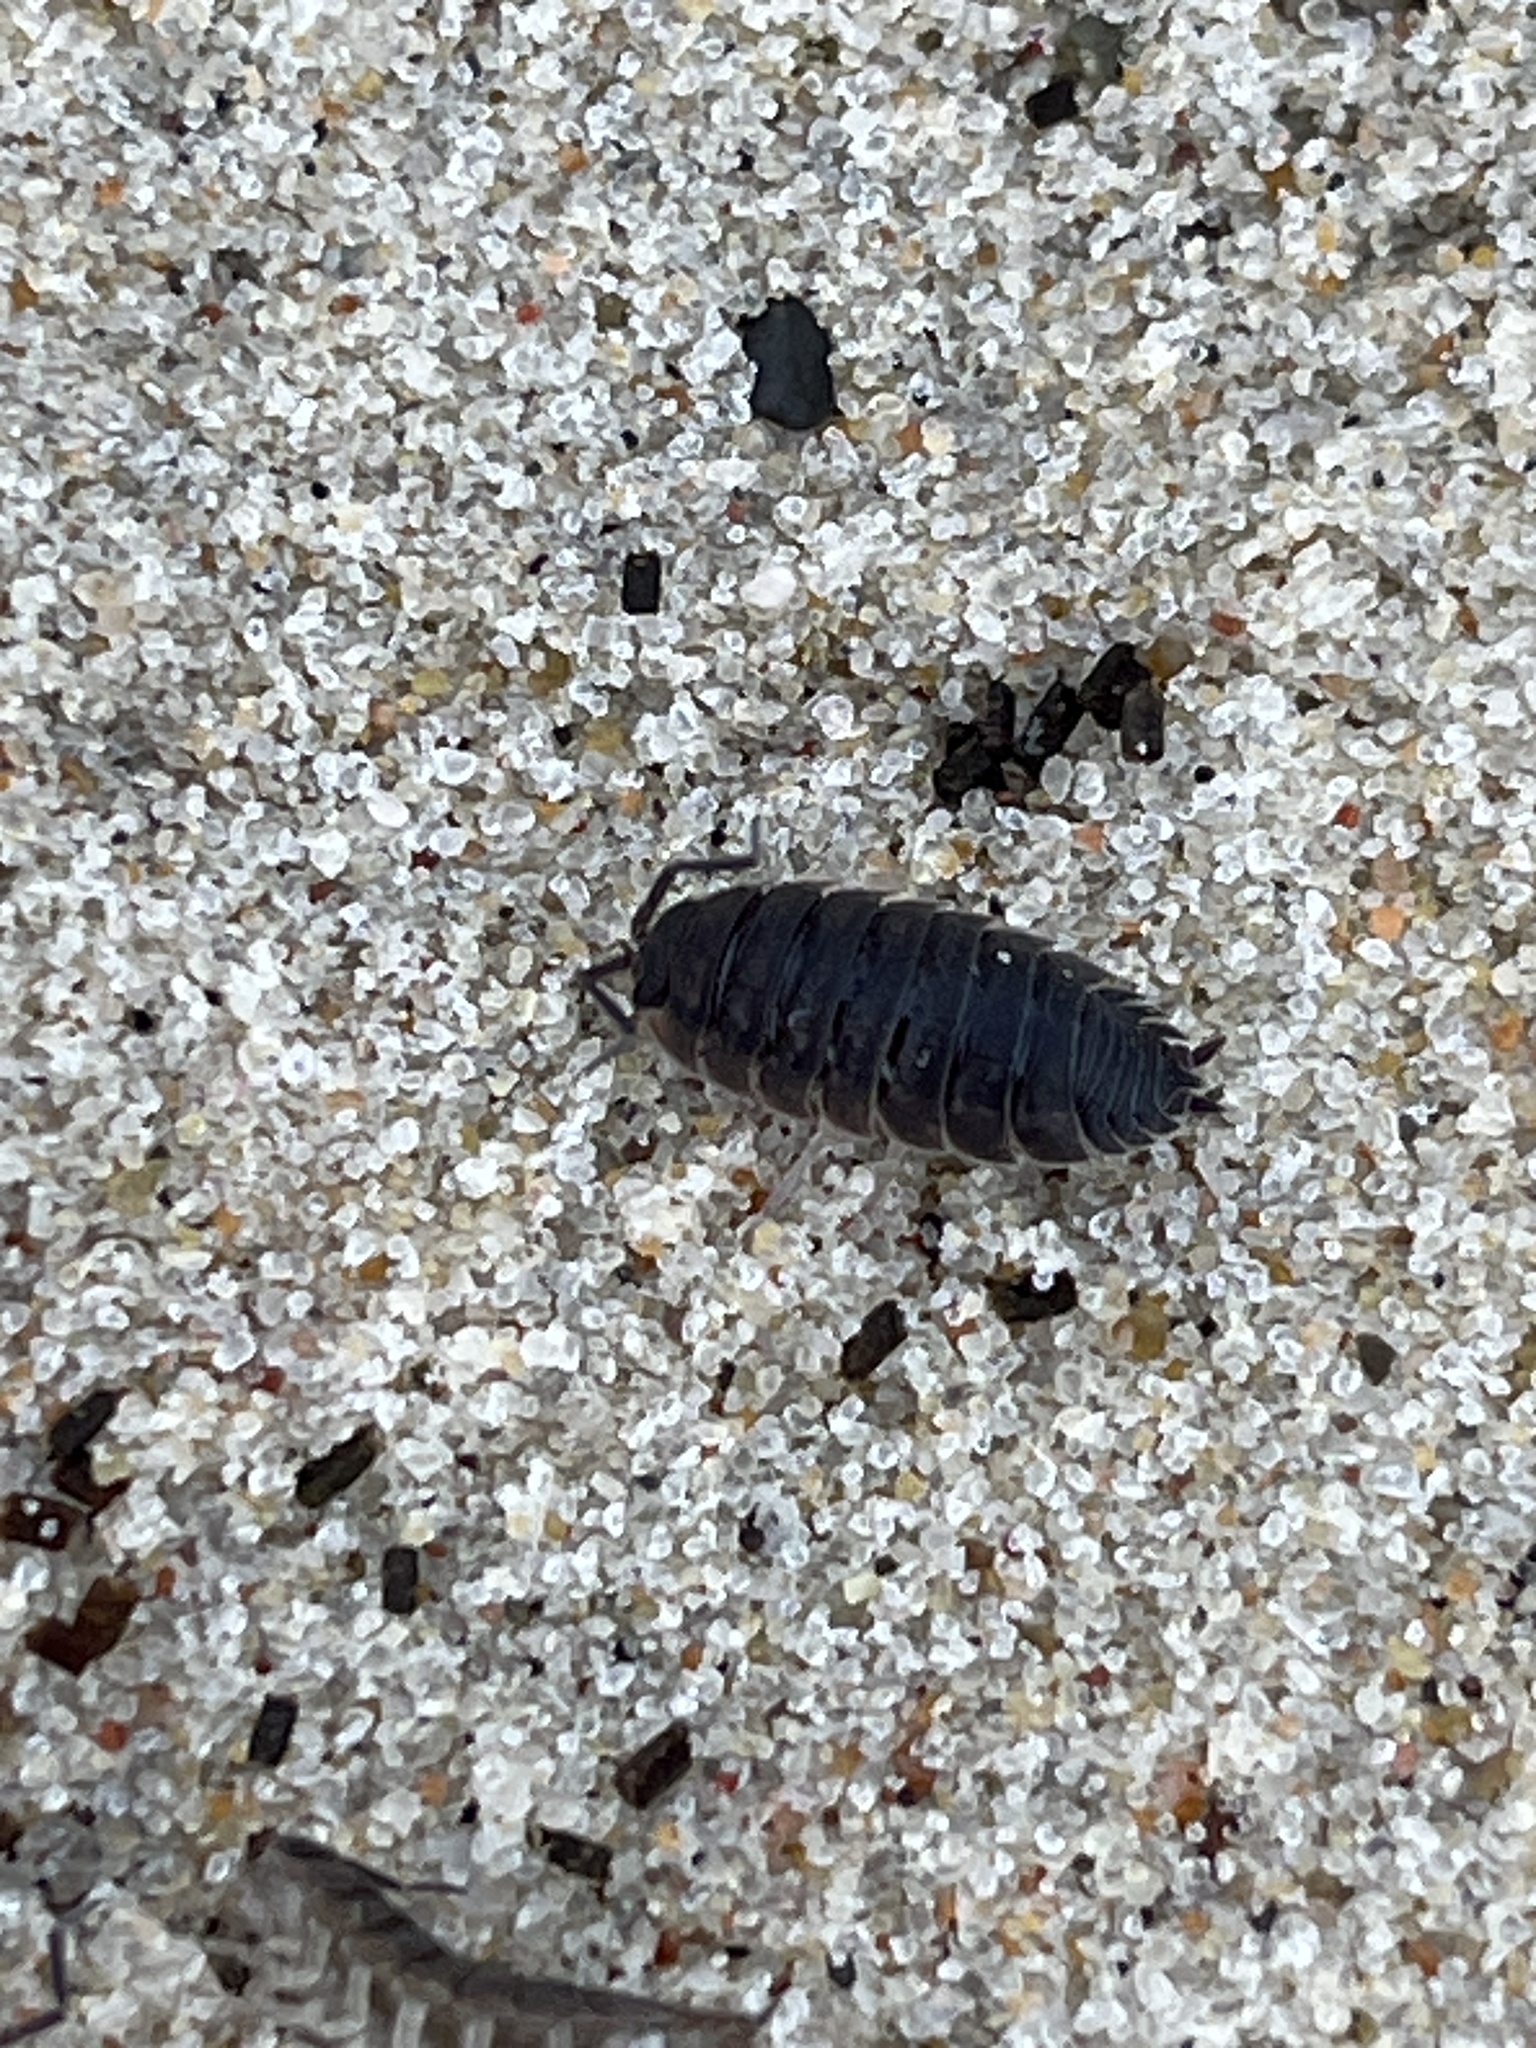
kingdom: Animalia
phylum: Arthropoda
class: Malacostraca
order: Isopoda
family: Porcellionidae
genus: Porcellio
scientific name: Porcellio scaber
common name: Common rough woodlouse
